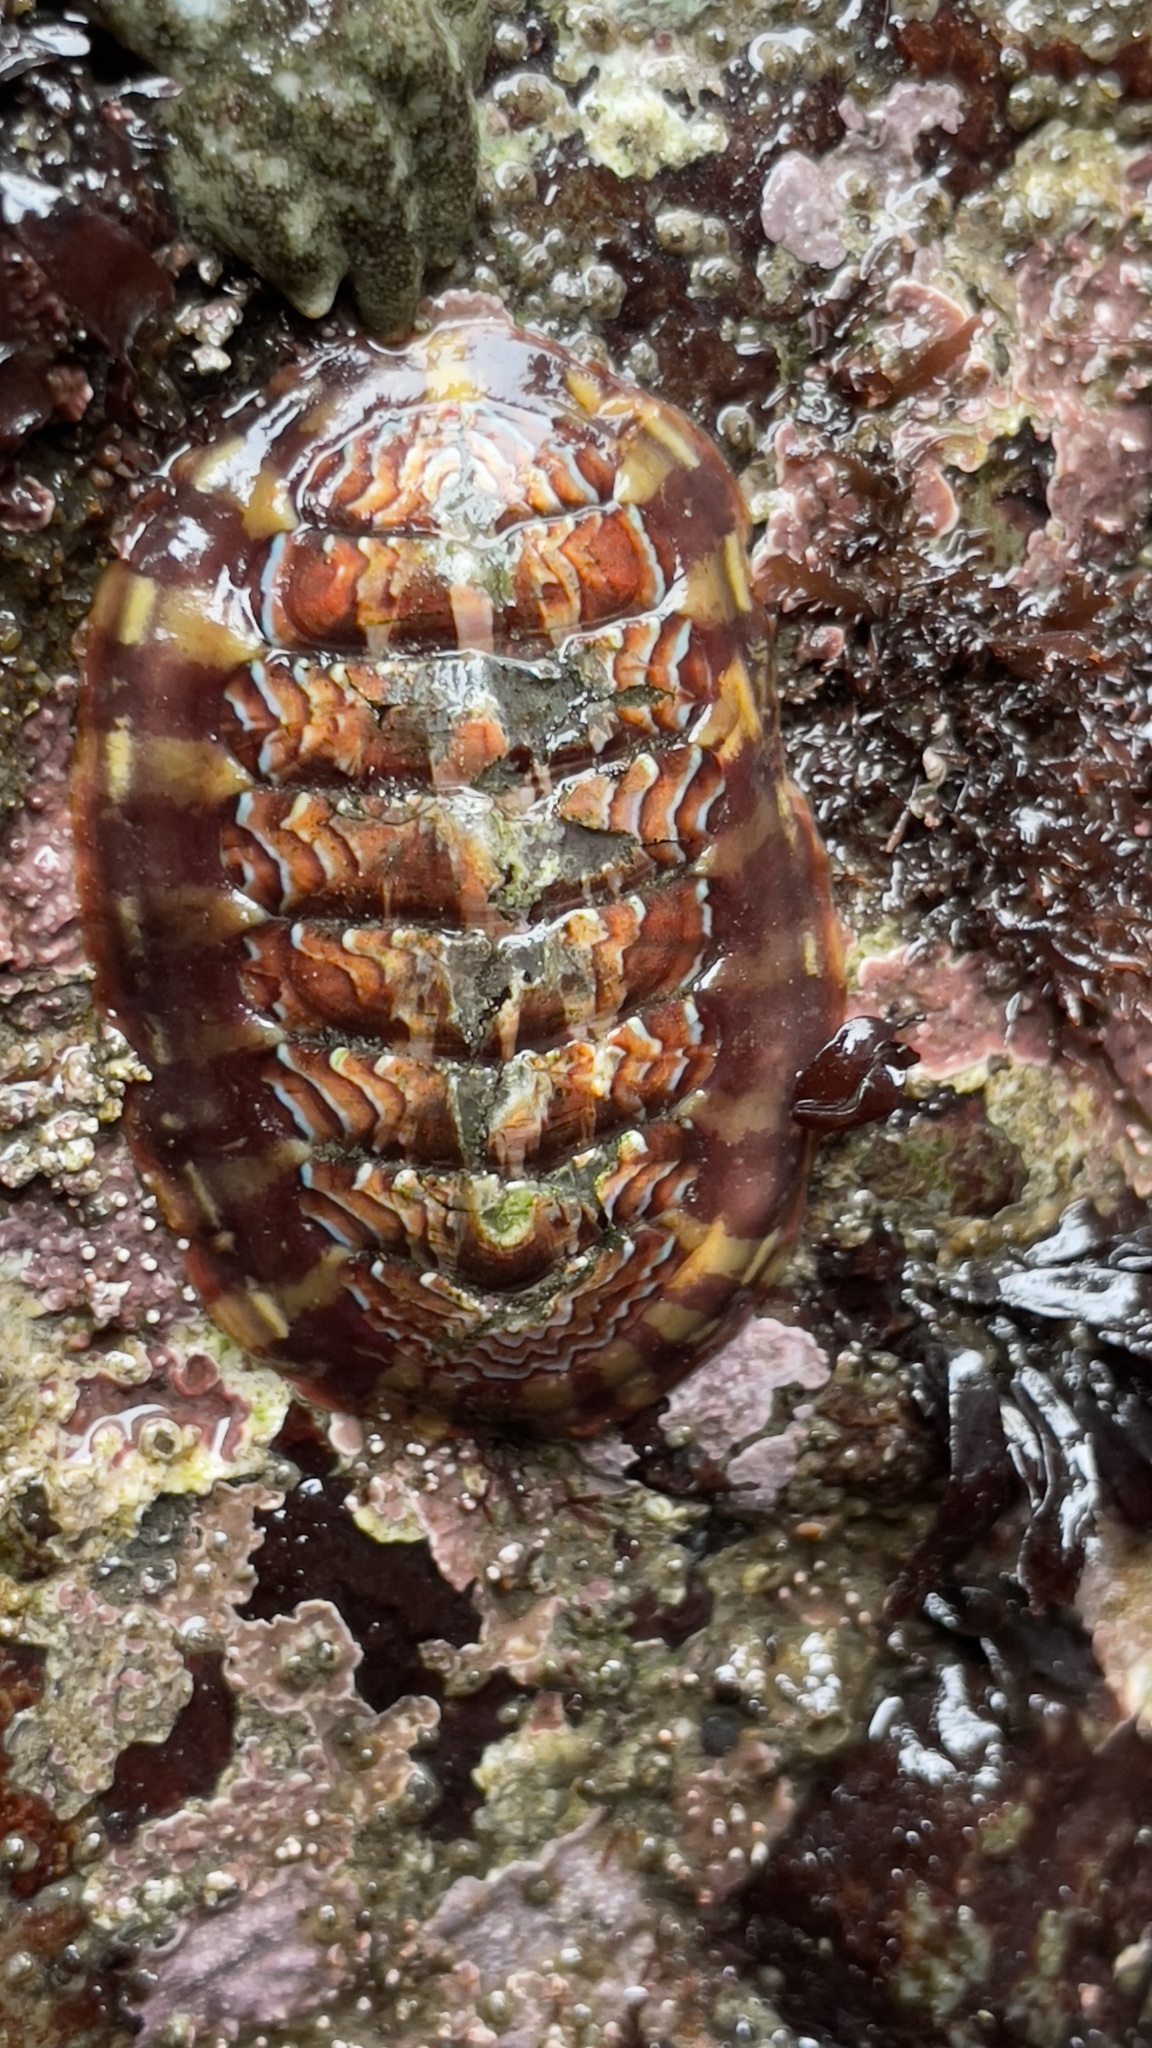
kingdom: Animalia
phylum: Mollusca
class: Polyplacophora
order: Chitonida
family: Tonicellidae
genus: Tonicella
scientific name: Tonicella lokii
